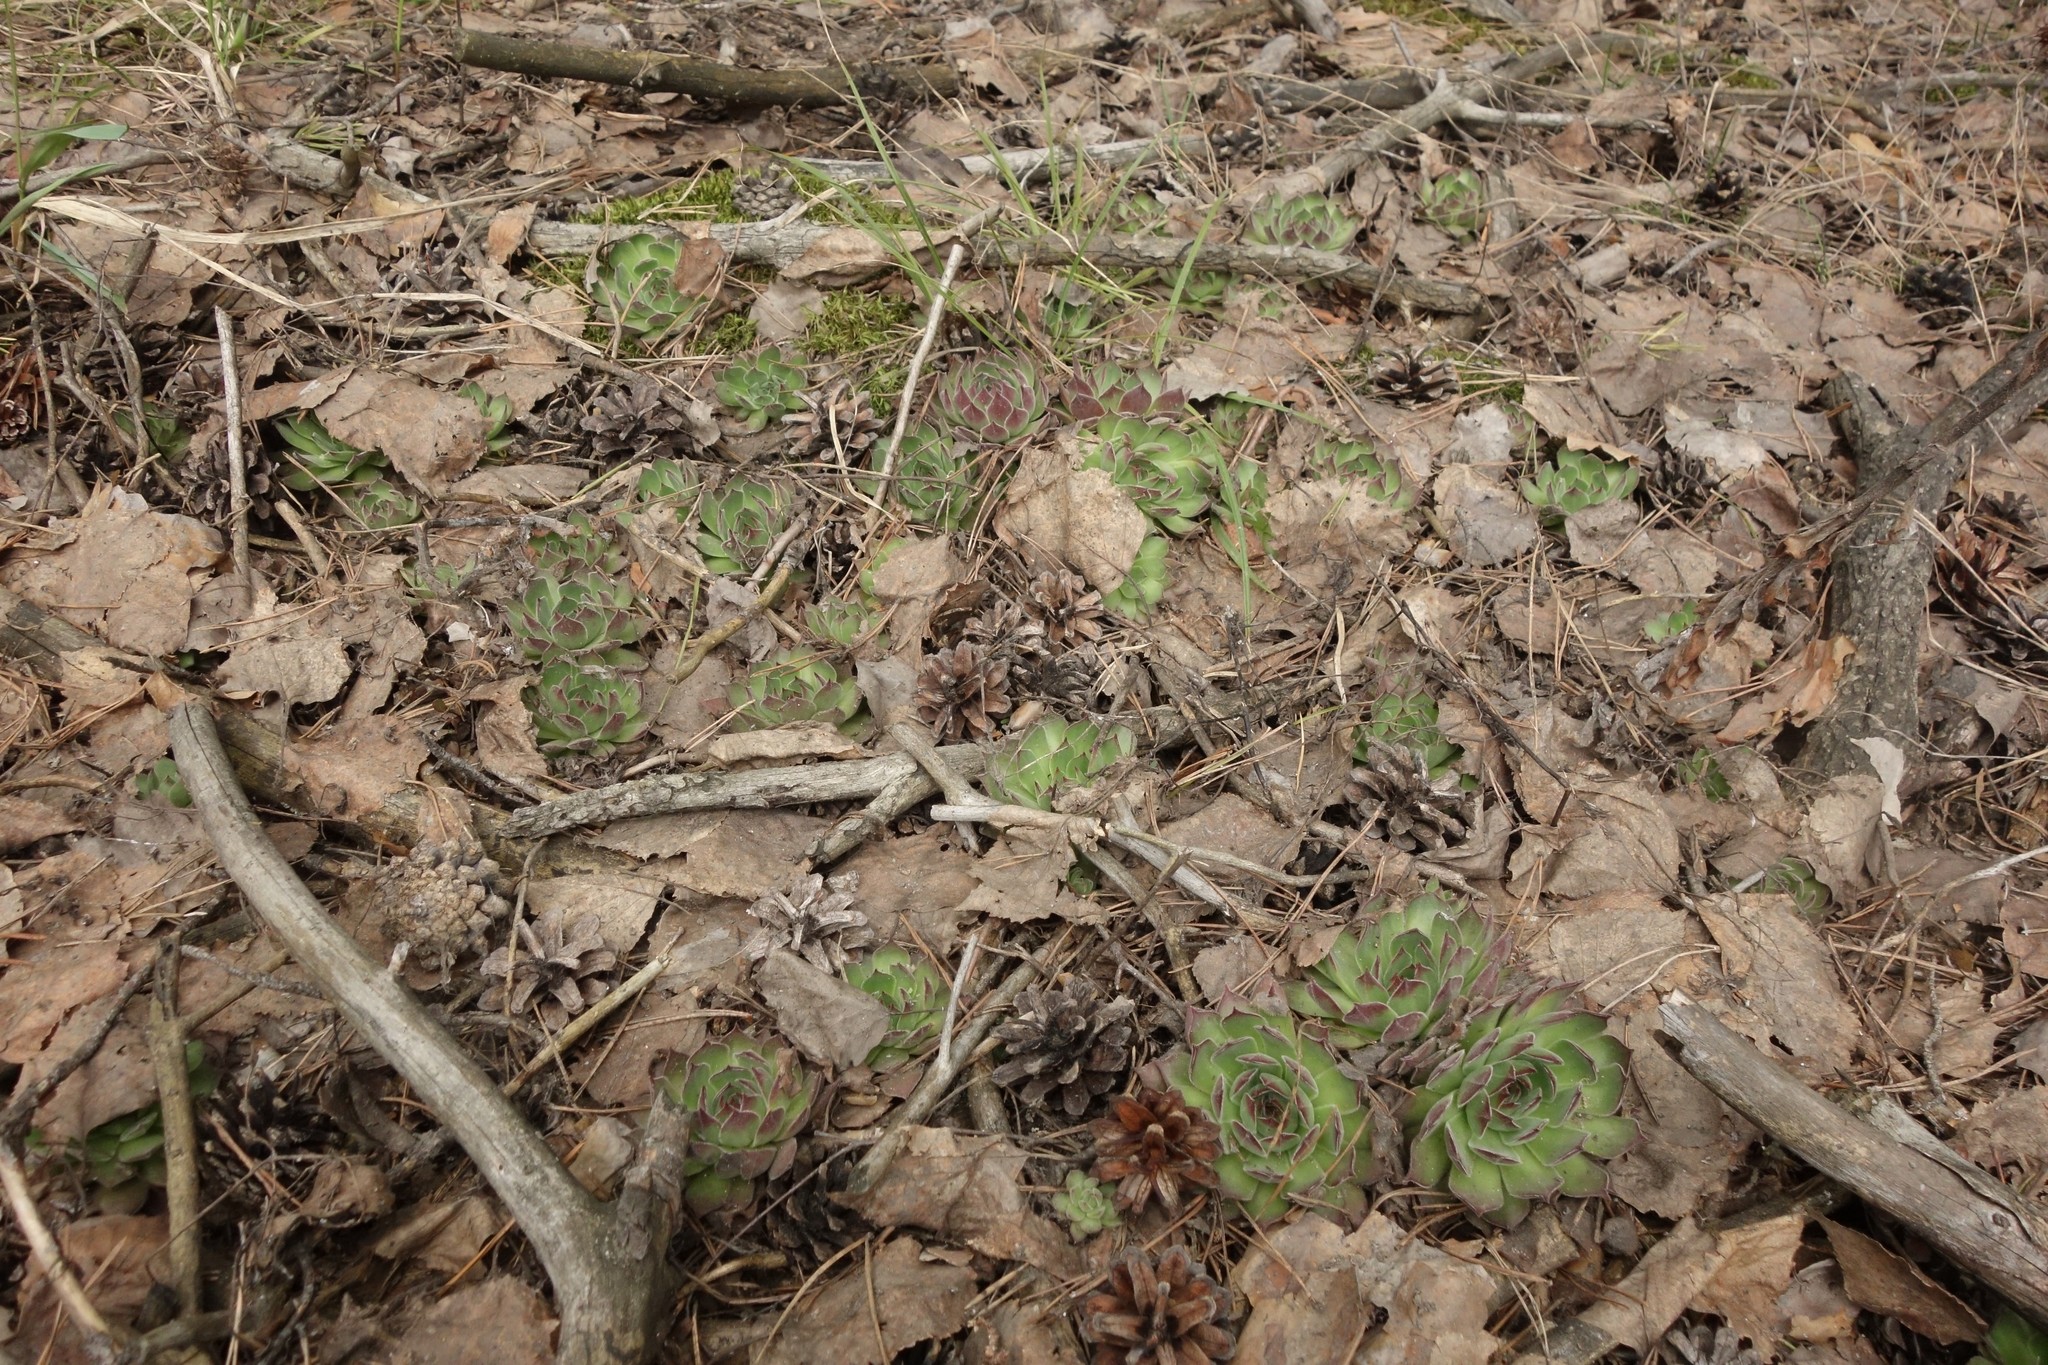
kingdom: Plantae
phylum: Tracheophyta
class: Magnoliopsida
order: Saxifragales
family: Crassulaceae
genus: Sempervivum
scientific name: Sempervivum ruthenicum
